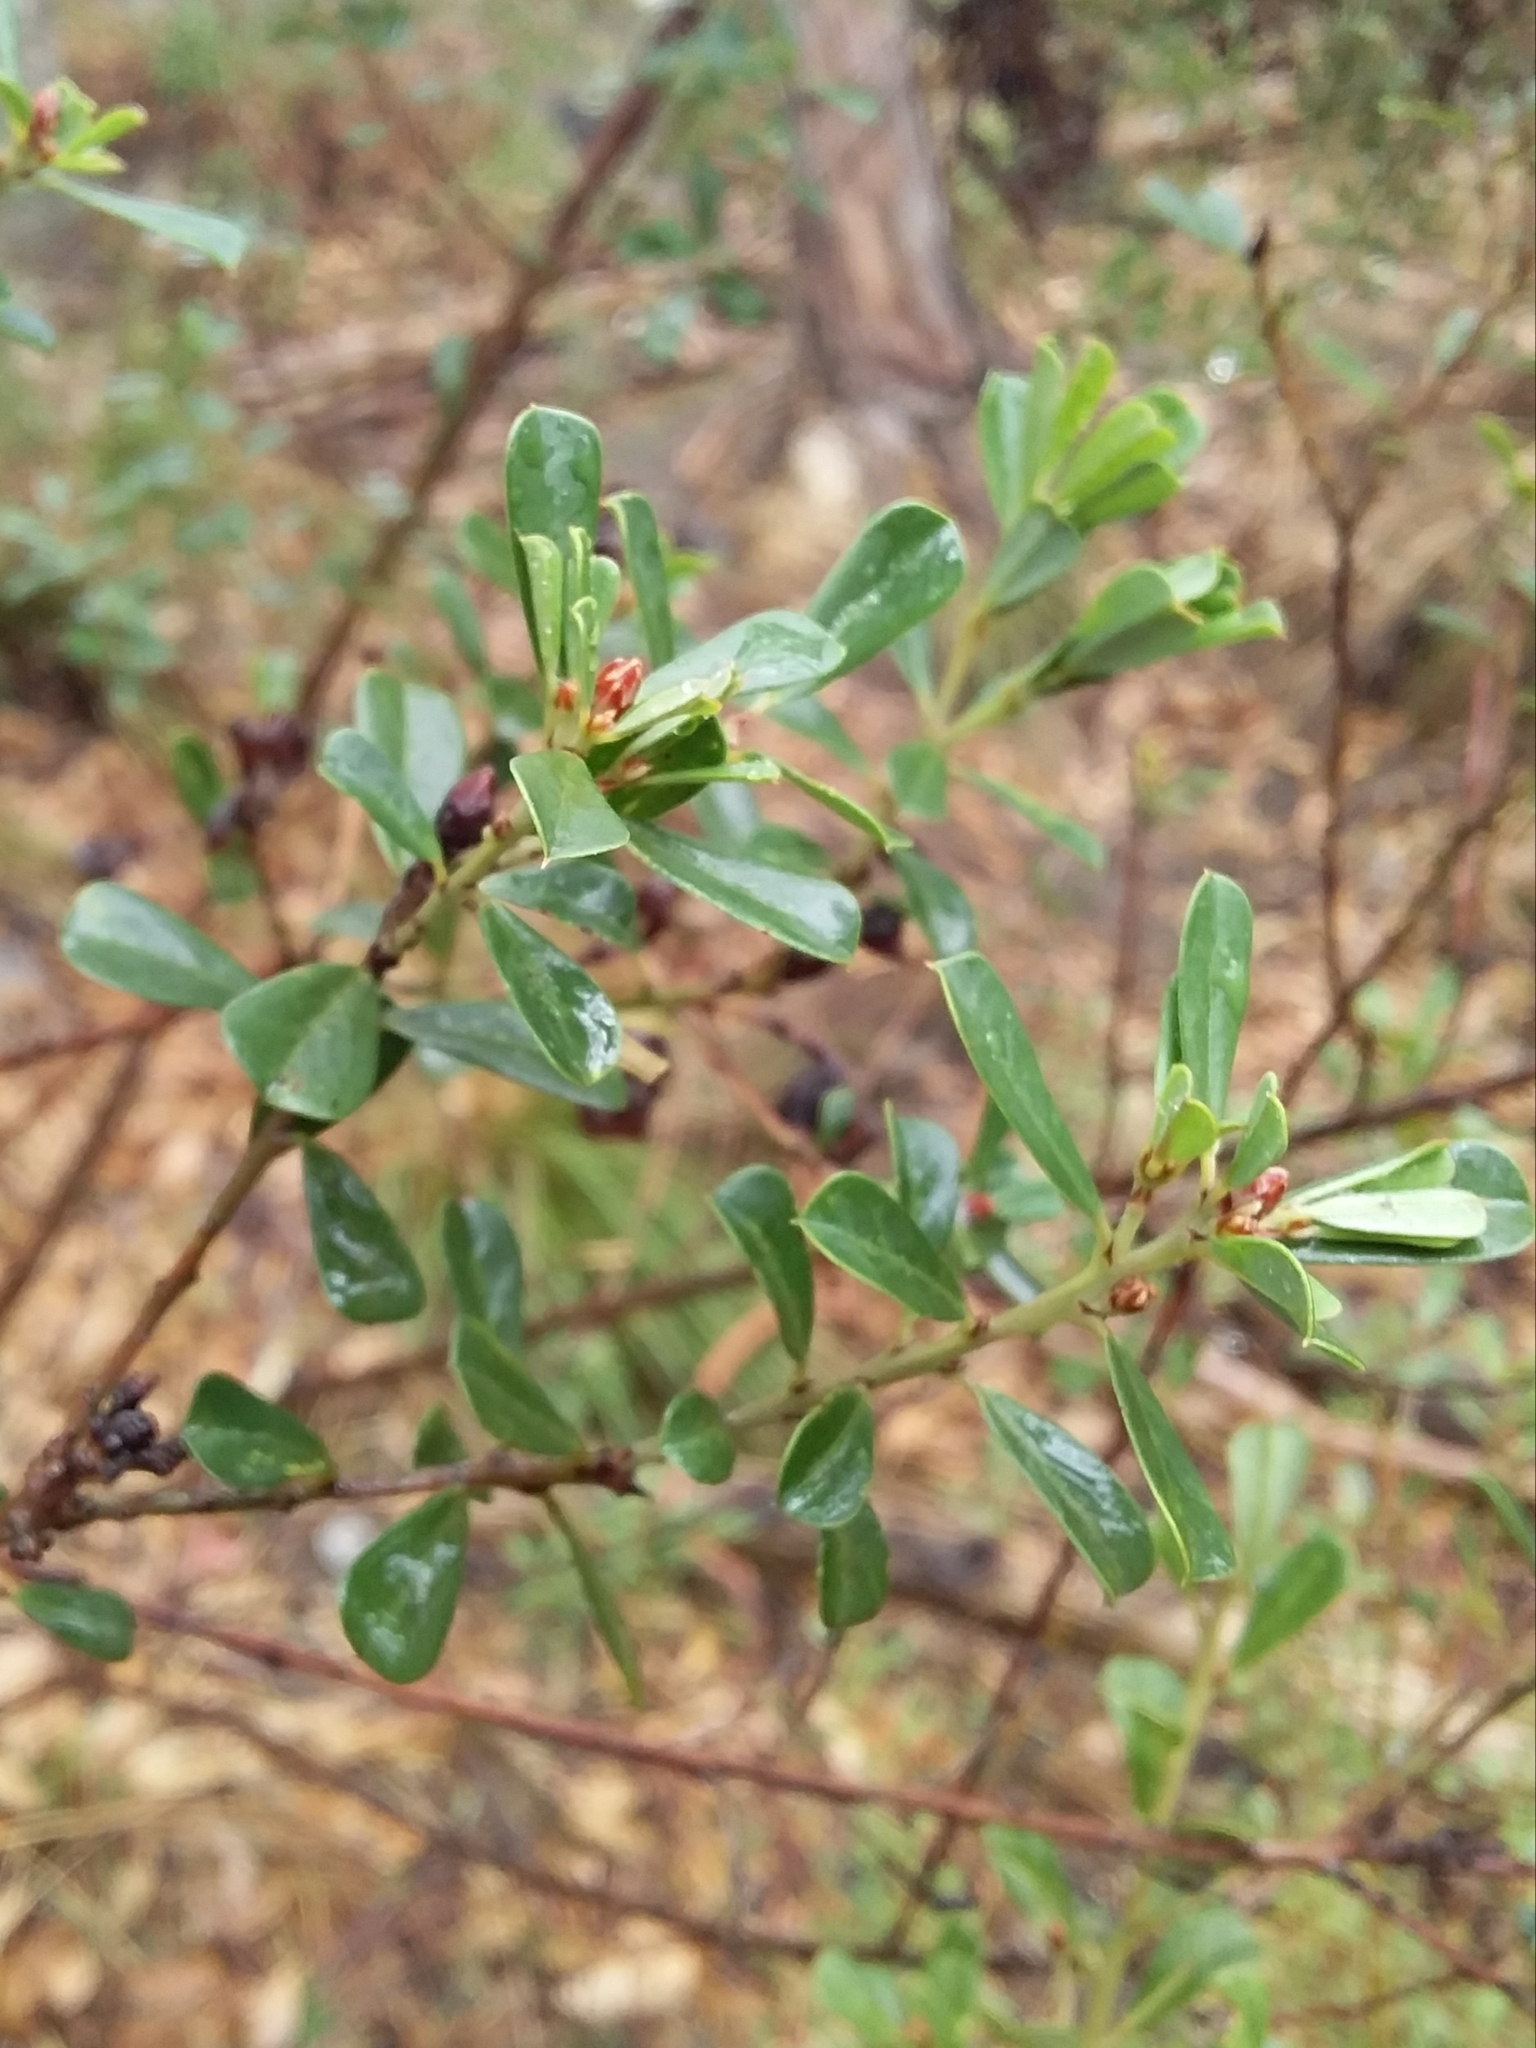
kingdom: Plantae
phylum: Tracheophyta
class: Magnoliopsida
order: Fabales
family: Fabaceae
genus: Pultenaea
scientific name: Pultenaea daphnoides
